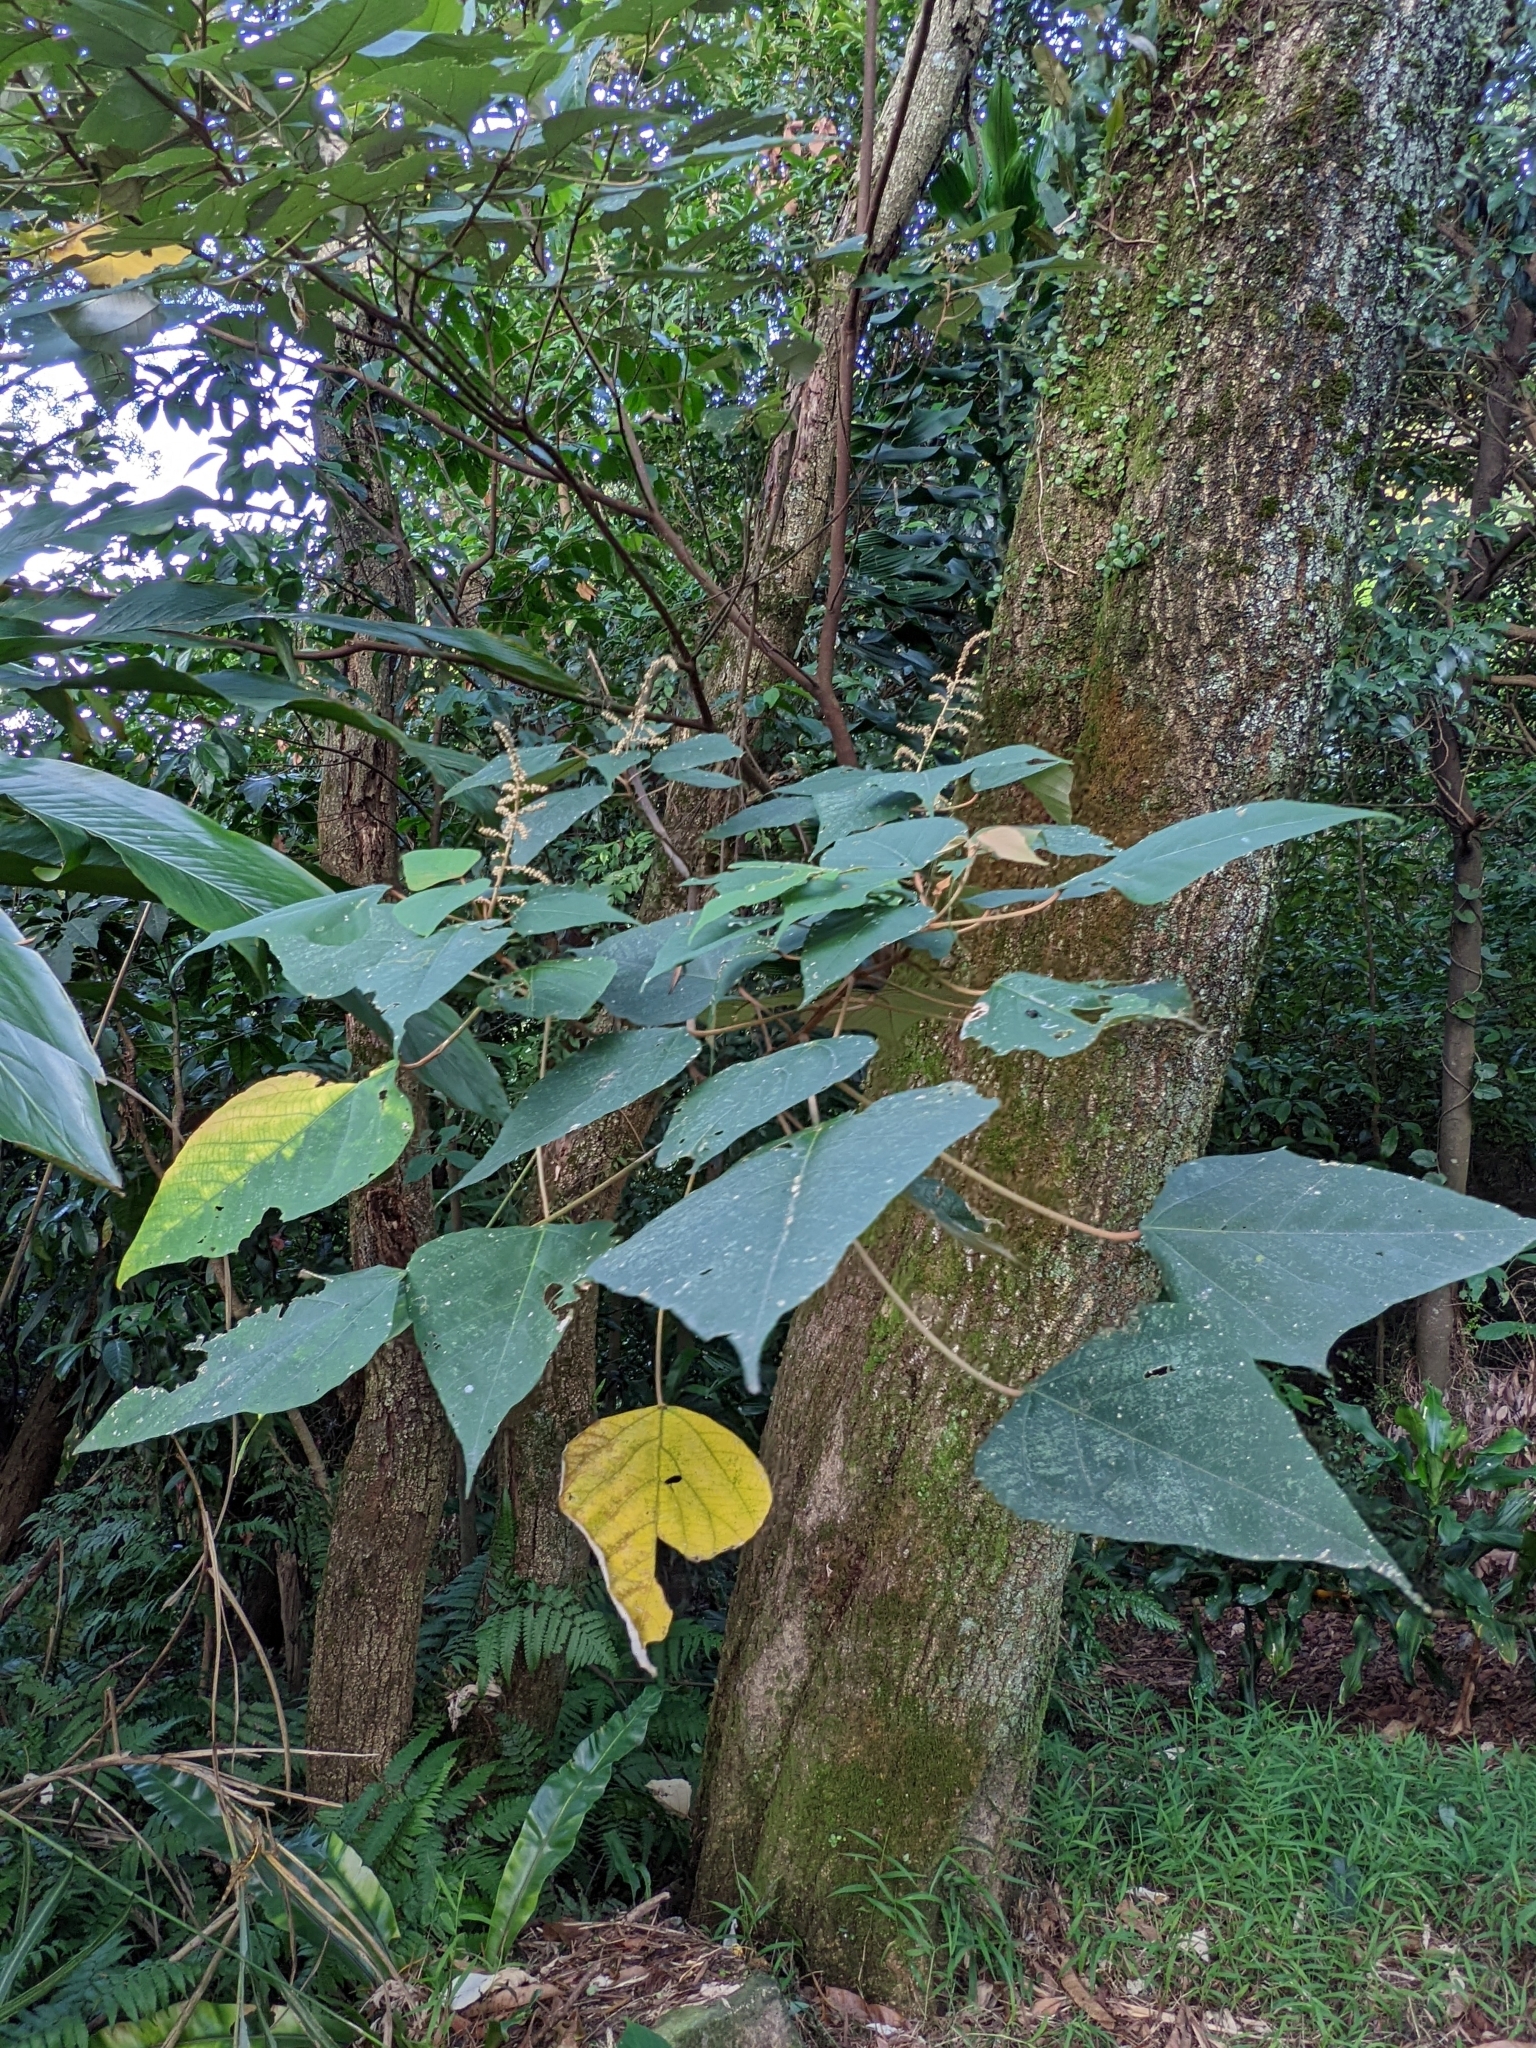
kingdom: Plantae
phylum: Tracheophyta
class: Magnoliopsida
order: Malpighiales
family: Euphorbiaceae
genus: Mallotus
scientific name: Mallotus paniculatus
